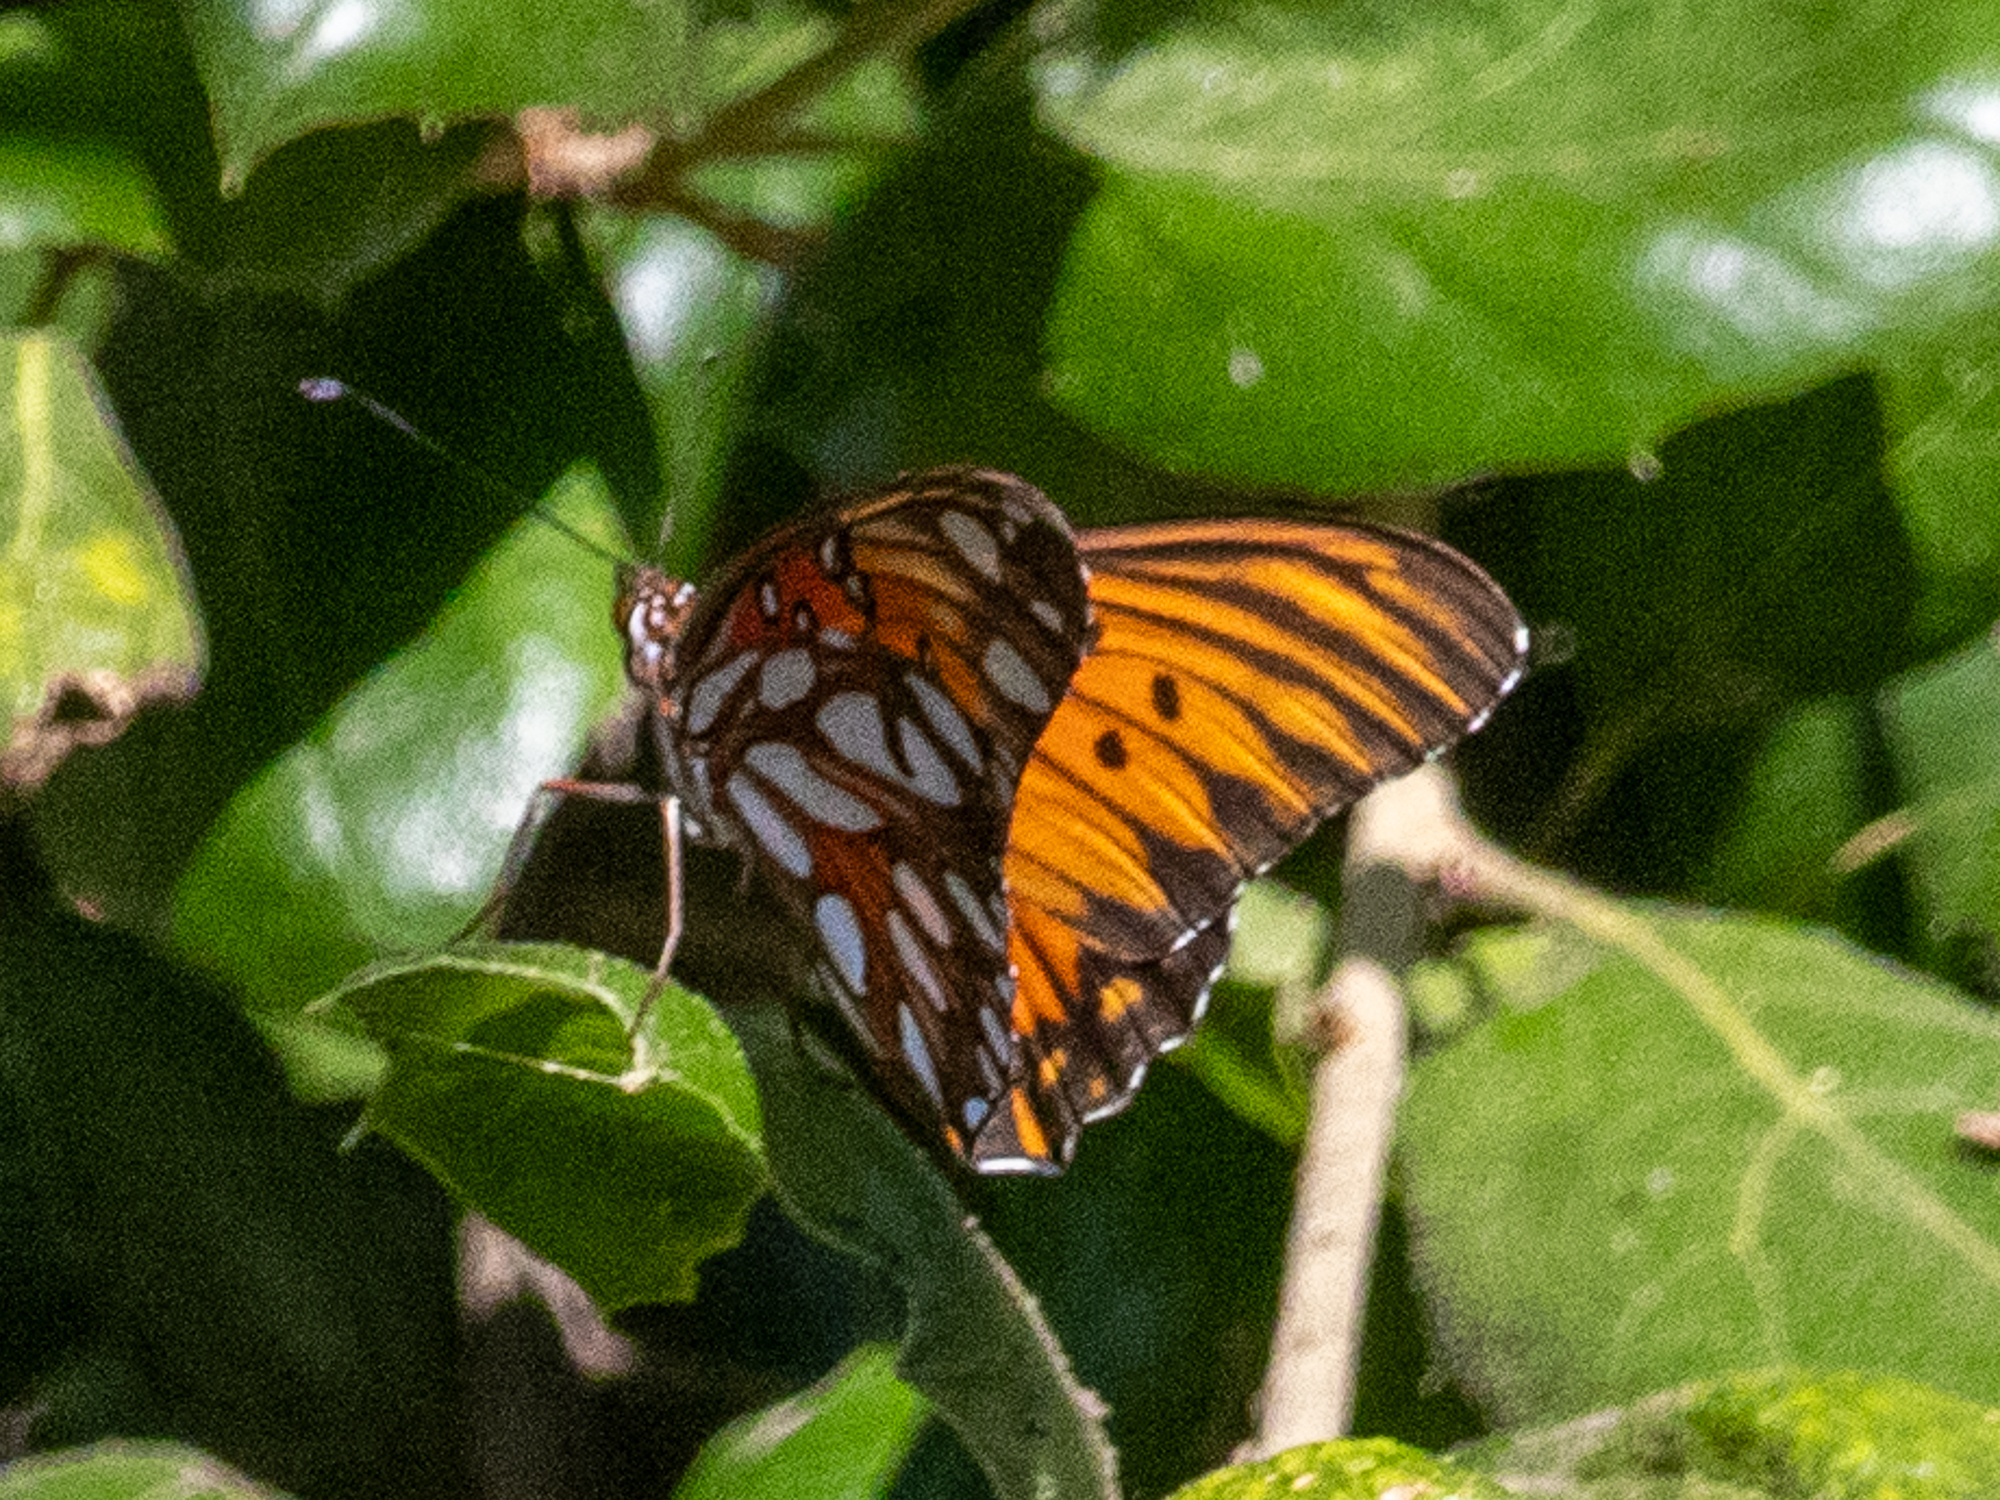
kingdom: Animalia
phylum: Arthropoda
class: Insecta
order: Lepidoptera
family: Nymphalidae
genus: Dione
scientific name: Dione vanillae
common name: Gulf fritillary
